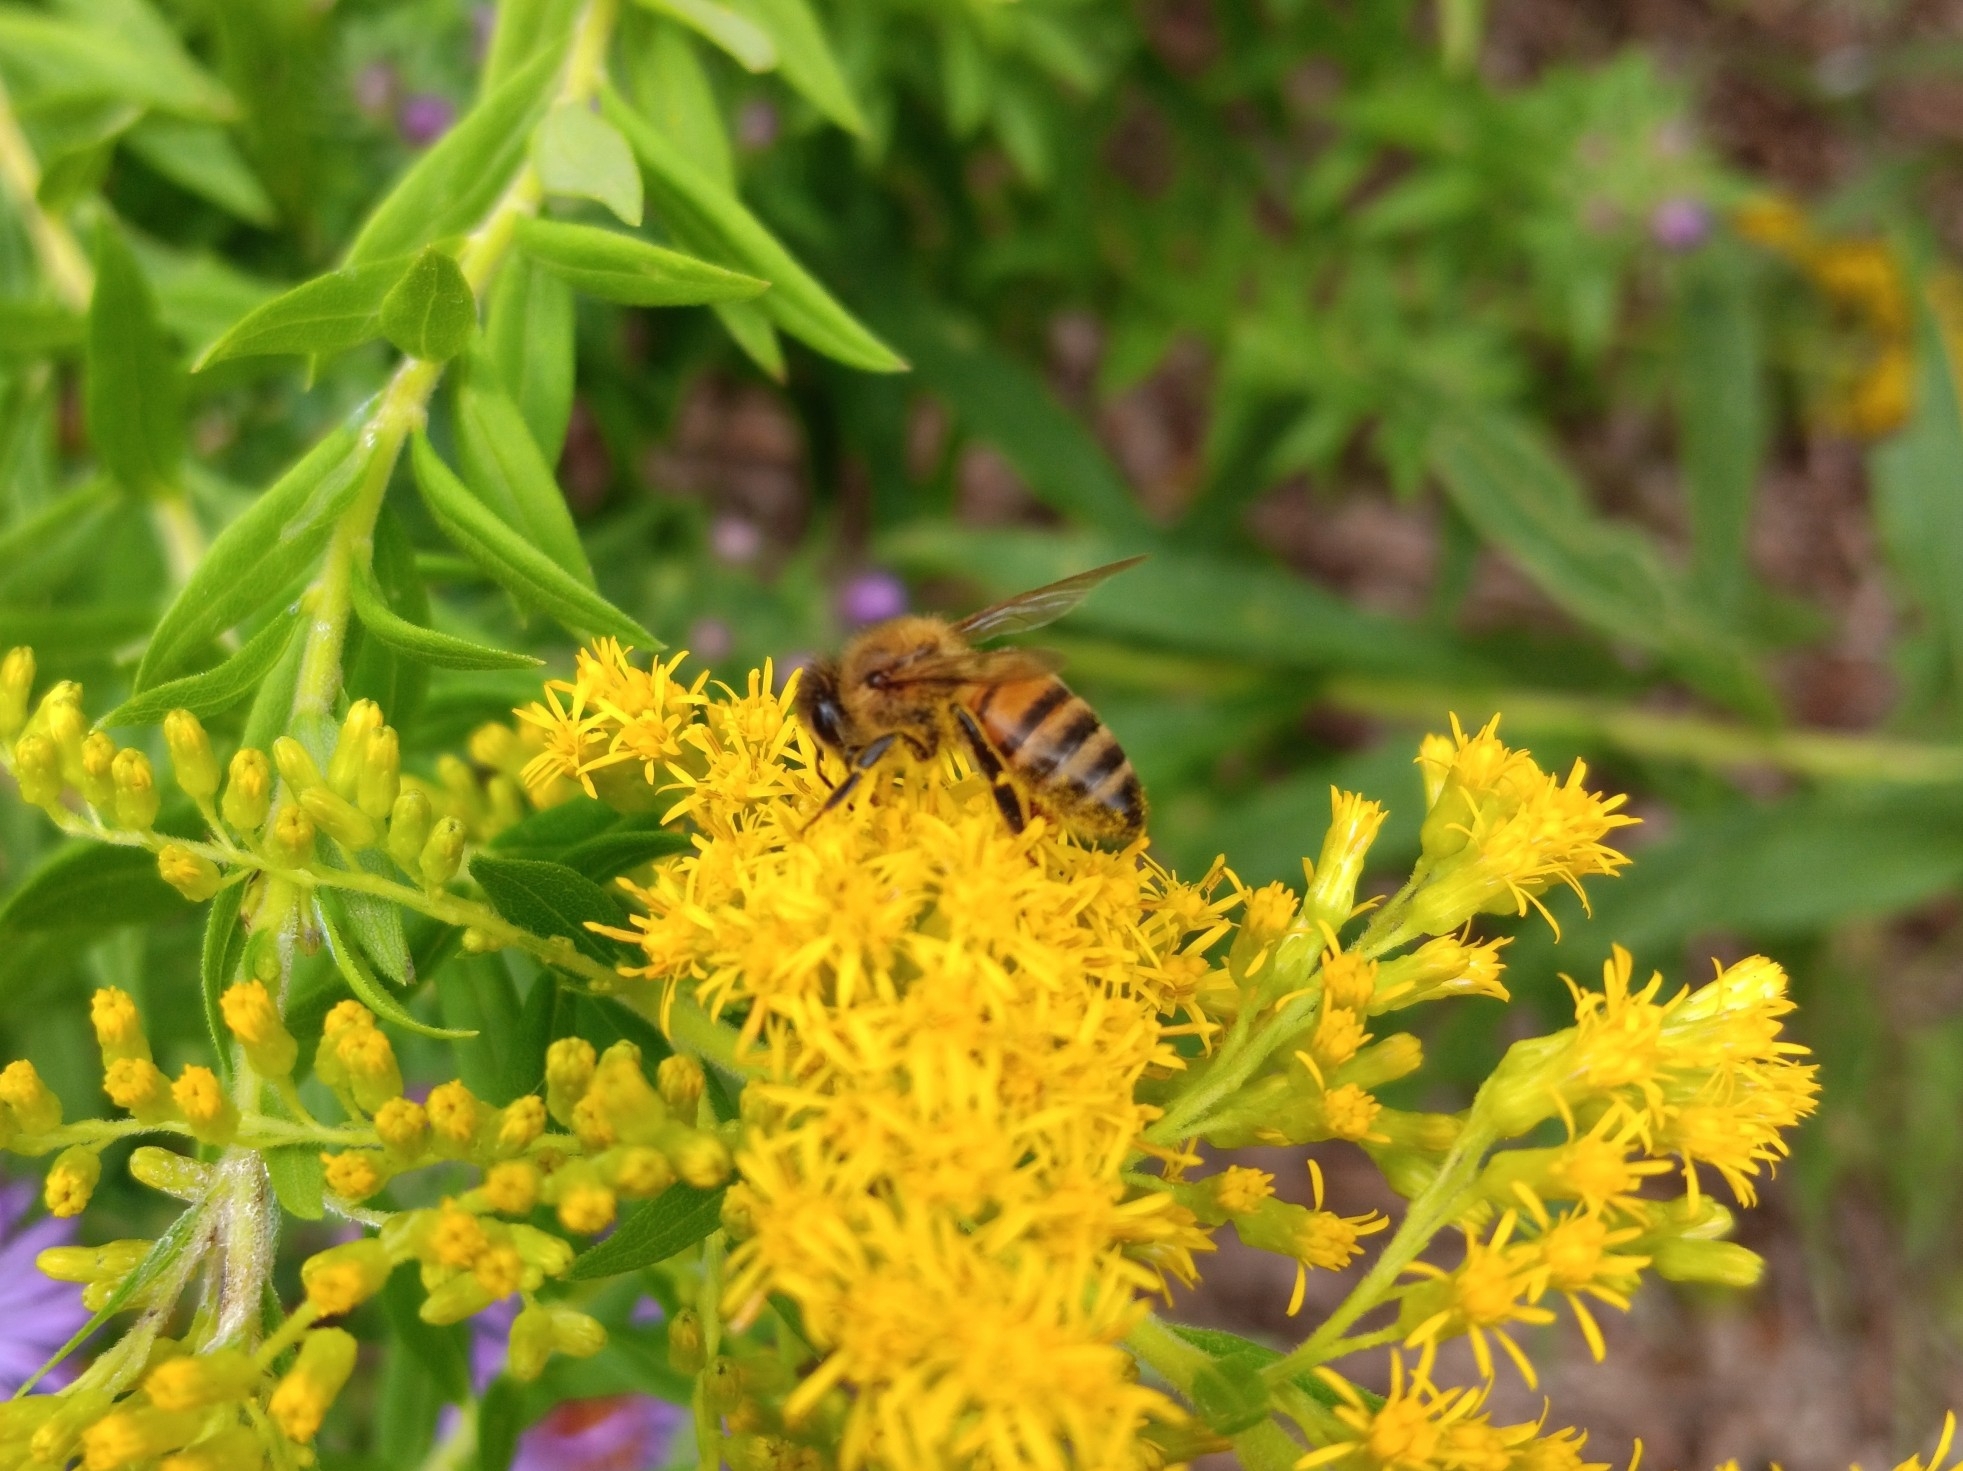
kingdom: Animalia
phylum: Arthropoda
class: Insecta
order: Hymenoptera
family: Apidae
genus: Apis
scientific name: Apis mellifera
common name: Honey bee
